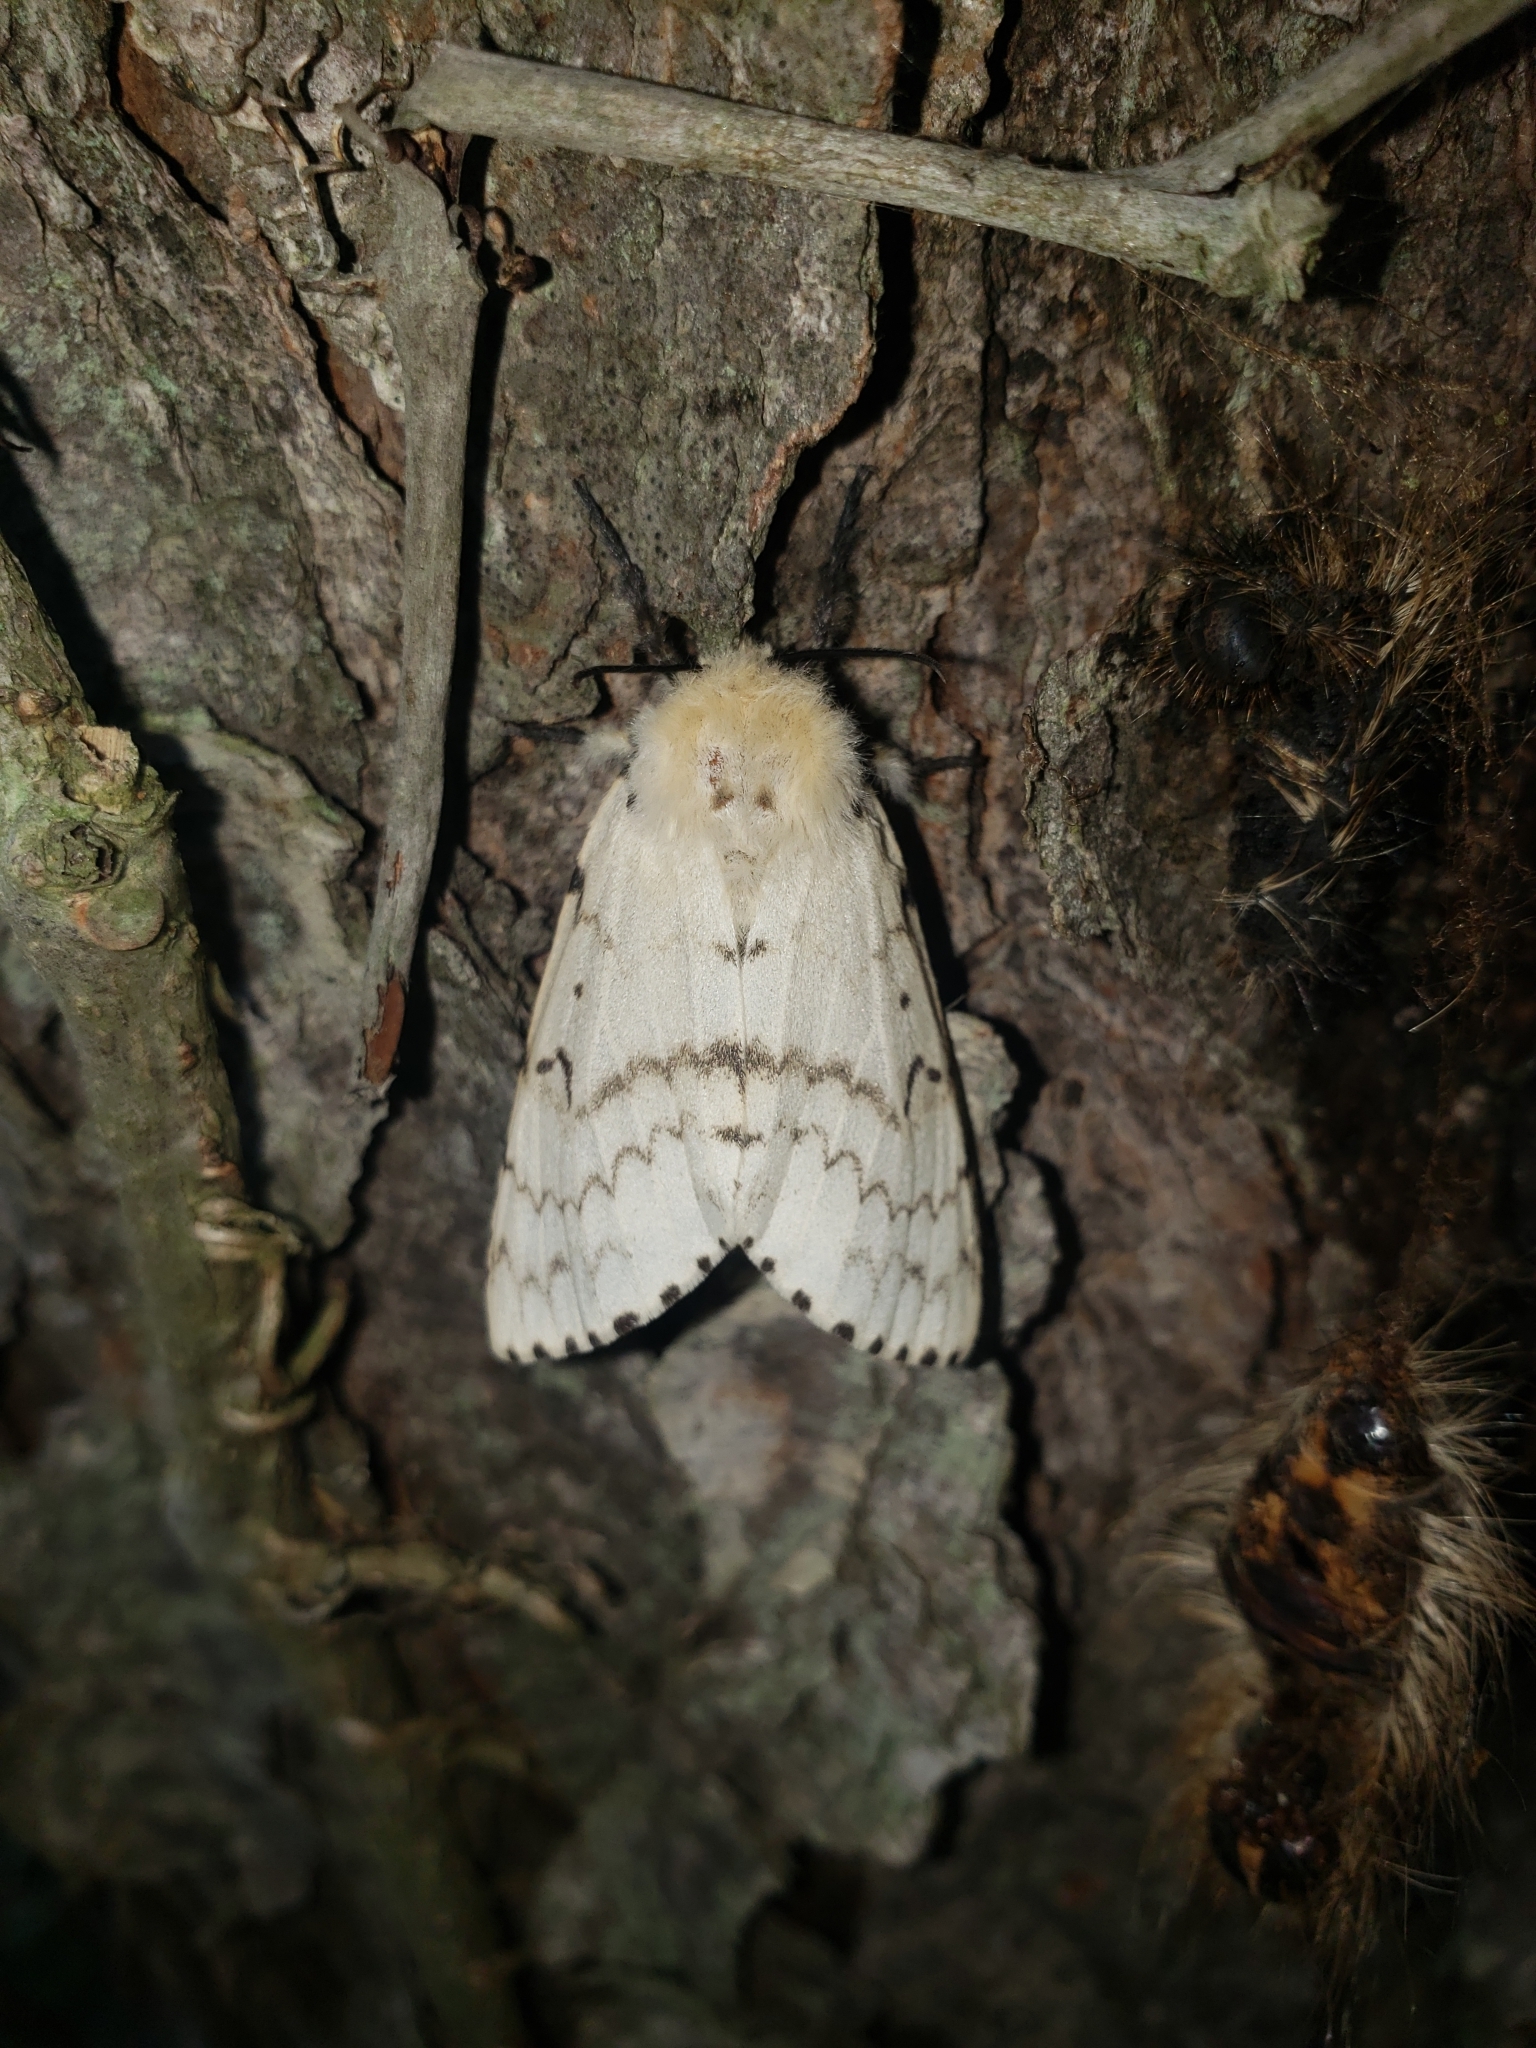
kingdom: Animalia
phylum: Arthropoda
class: Insecta
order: Lepidoptera
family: Erebidae
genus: Lymantria
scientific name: Lymantria dispar
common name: Gypsy moth
